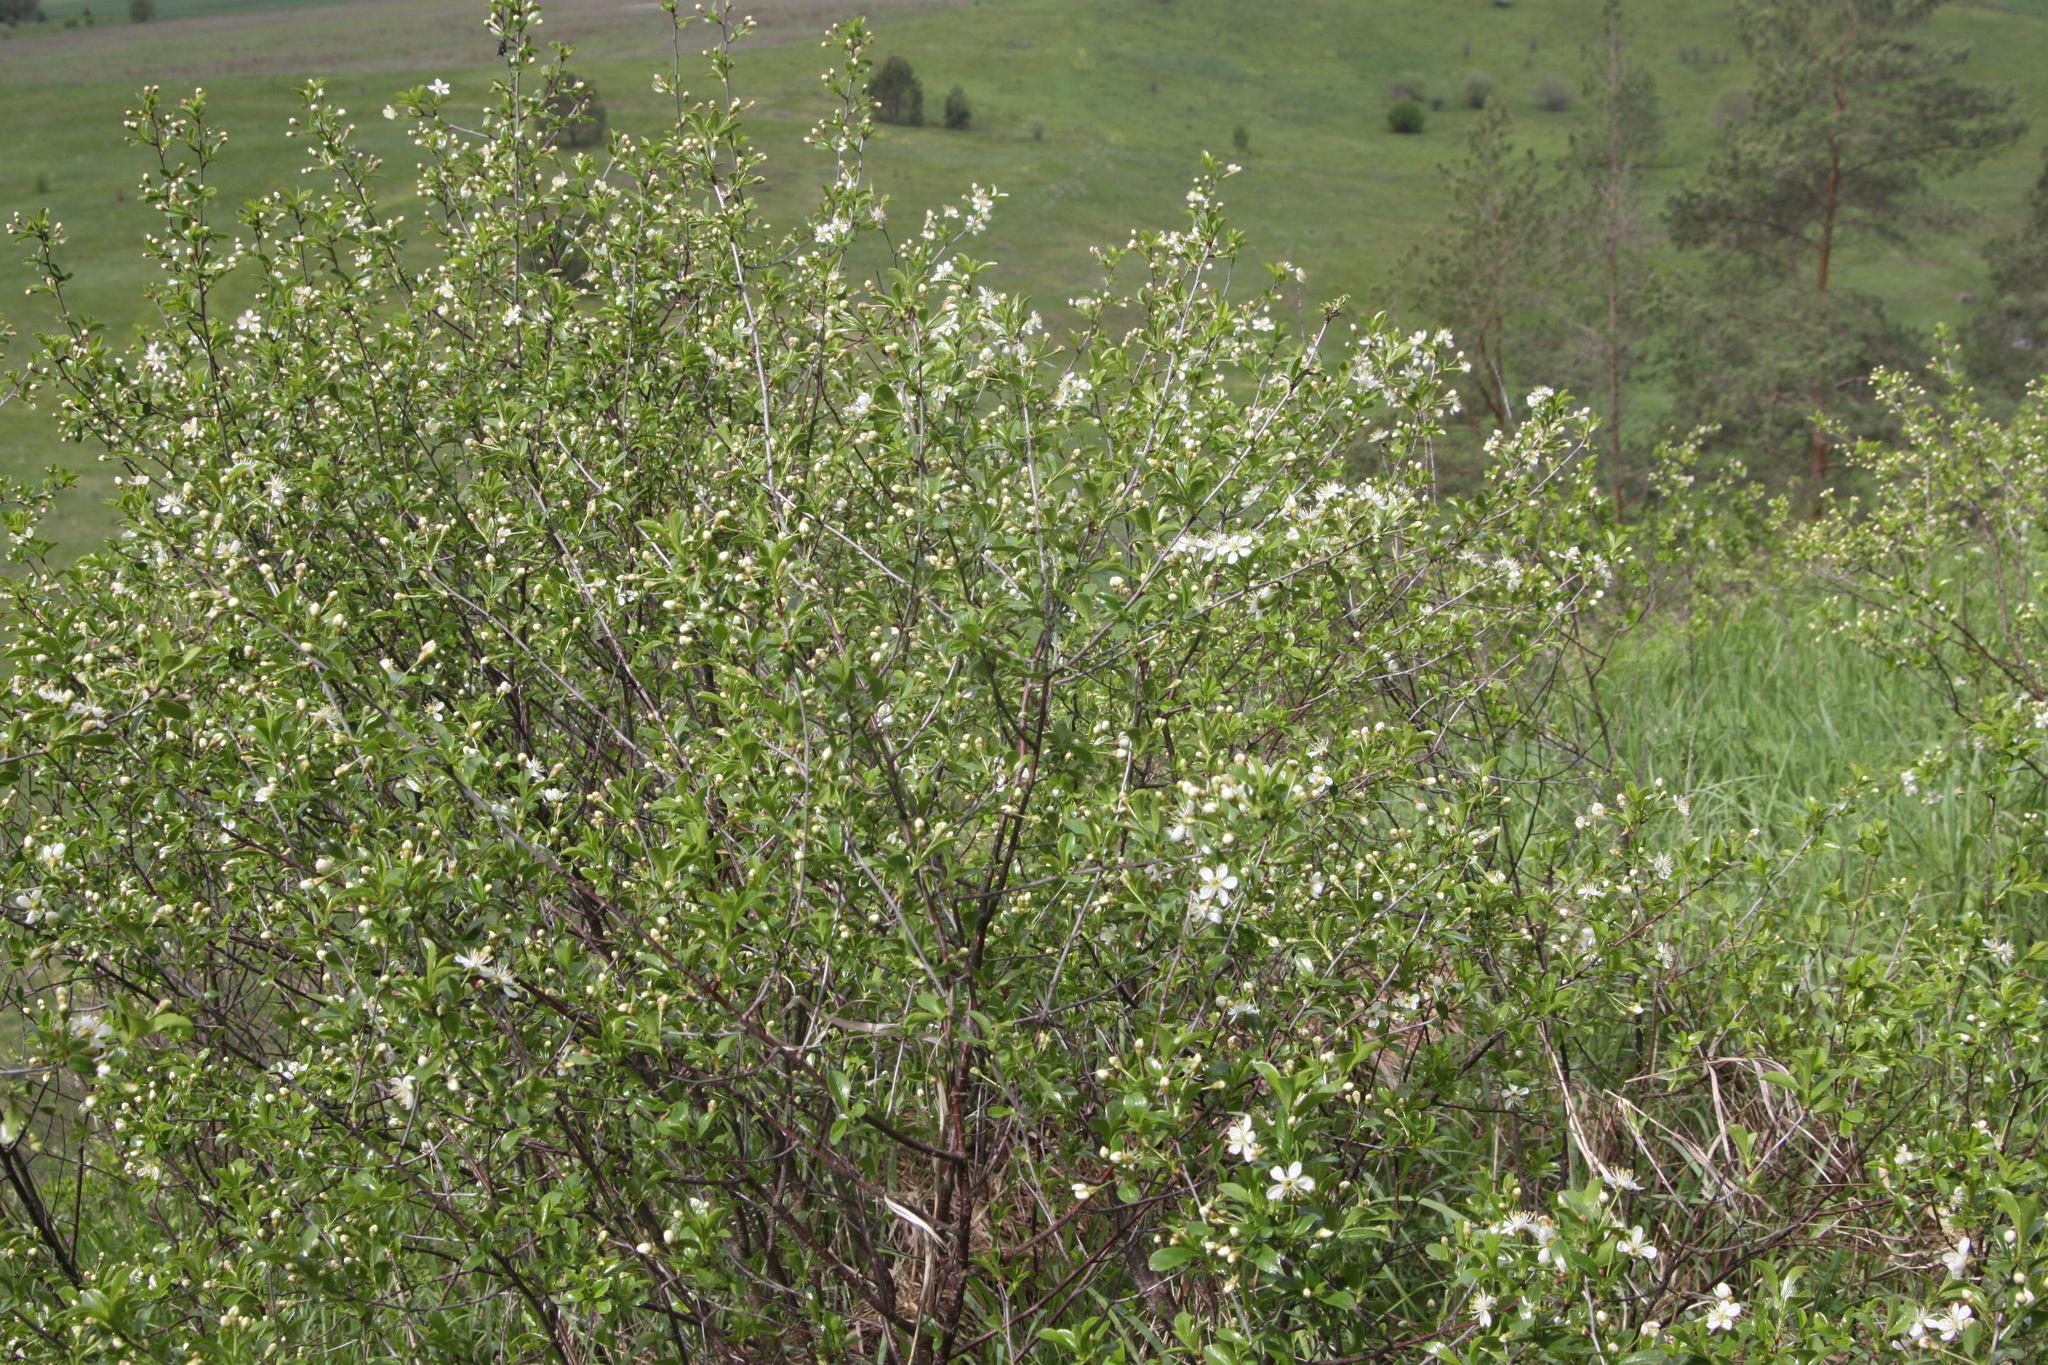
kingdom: Plantae
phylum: Tracheophyta
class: Magnoliopsida
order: Rosales
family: Rosaceae
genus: Prunus
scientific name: Prunus fruticosa
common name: European dwarf cherry
